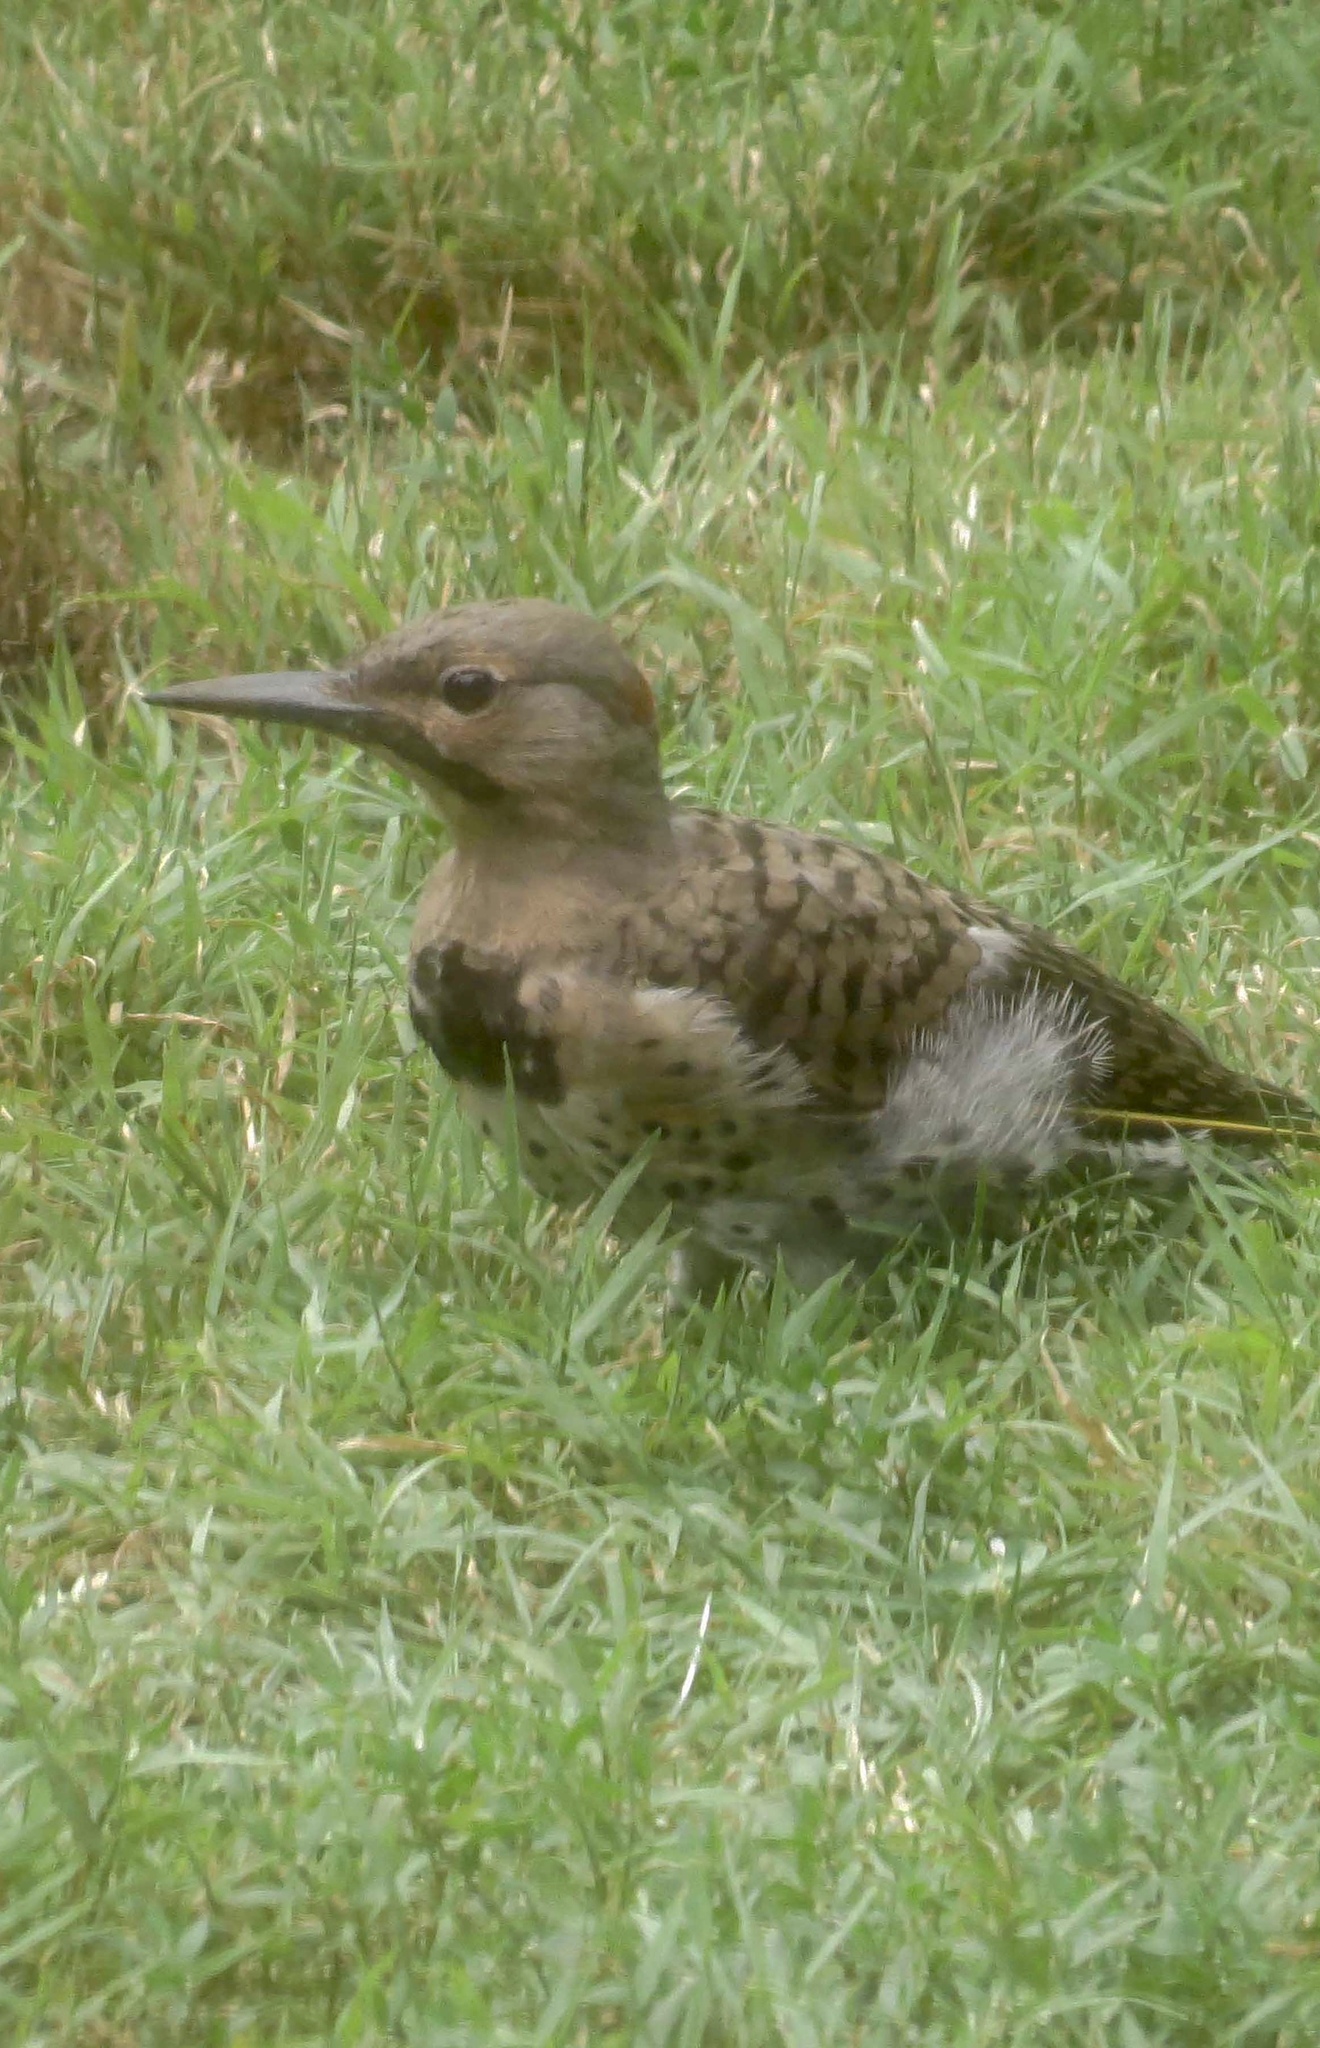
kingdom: Animalia
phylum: Chordata
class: Aves
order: Piciformes
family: Picidae
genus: Colaptes
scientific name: Colaptes auratus
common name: Northern flicker
